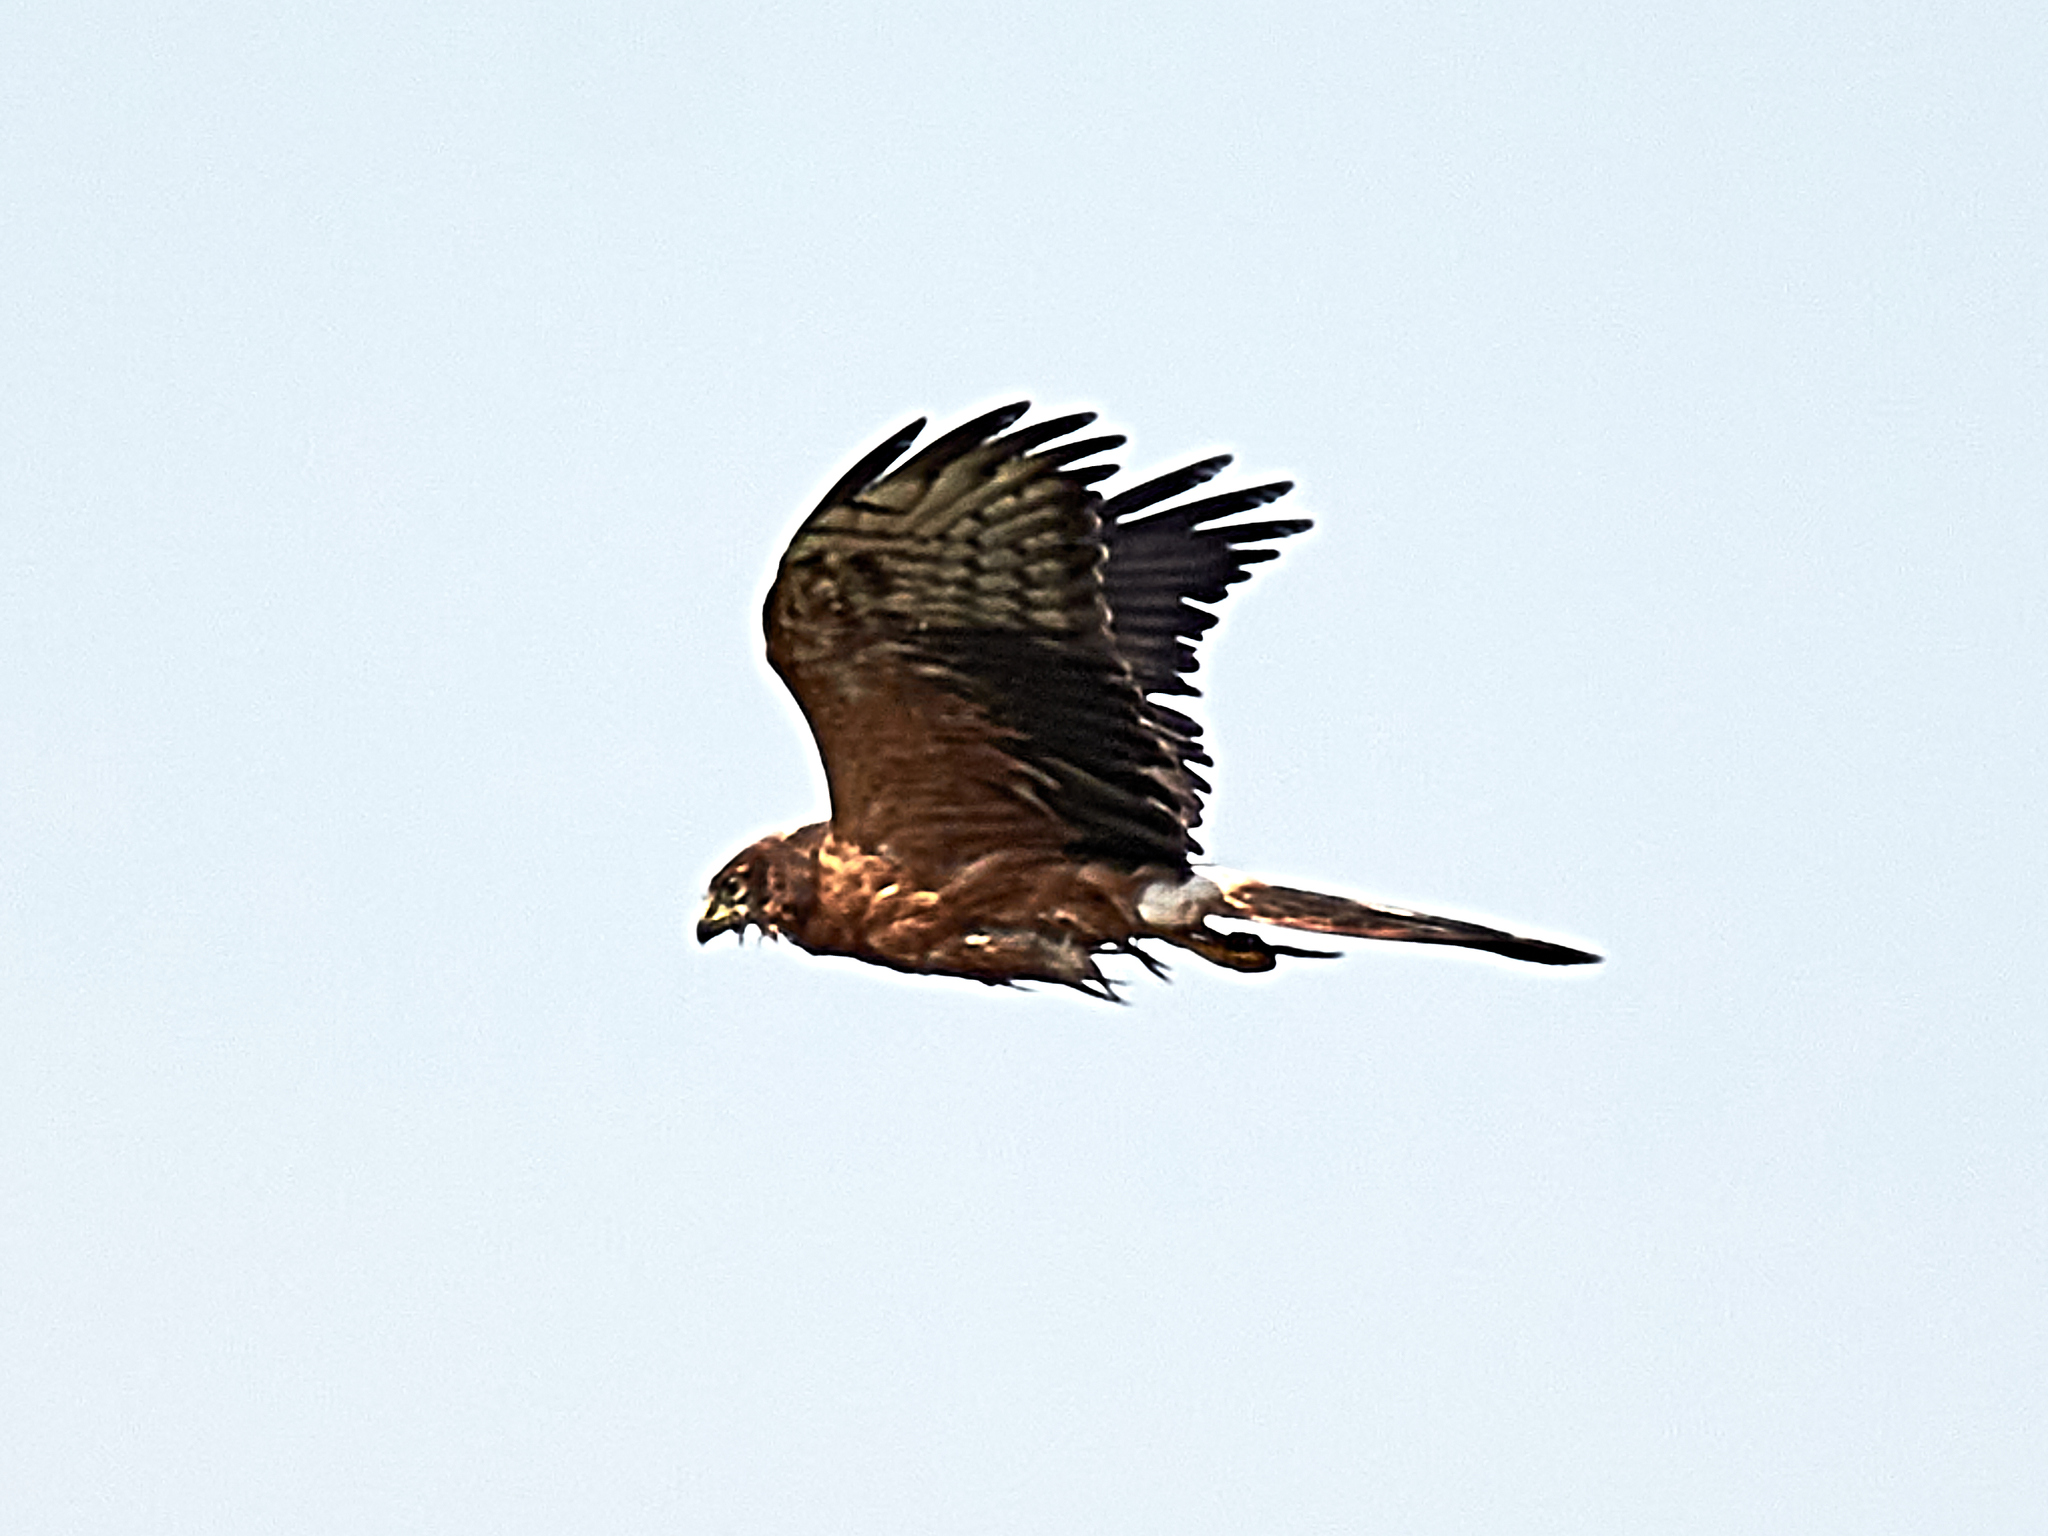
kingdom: Animalia
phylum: Chordata
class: Aves
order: Accipitriformes
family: Accipitridae
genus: Circus
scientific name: Circus pygargus
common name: Montagu's harrier
